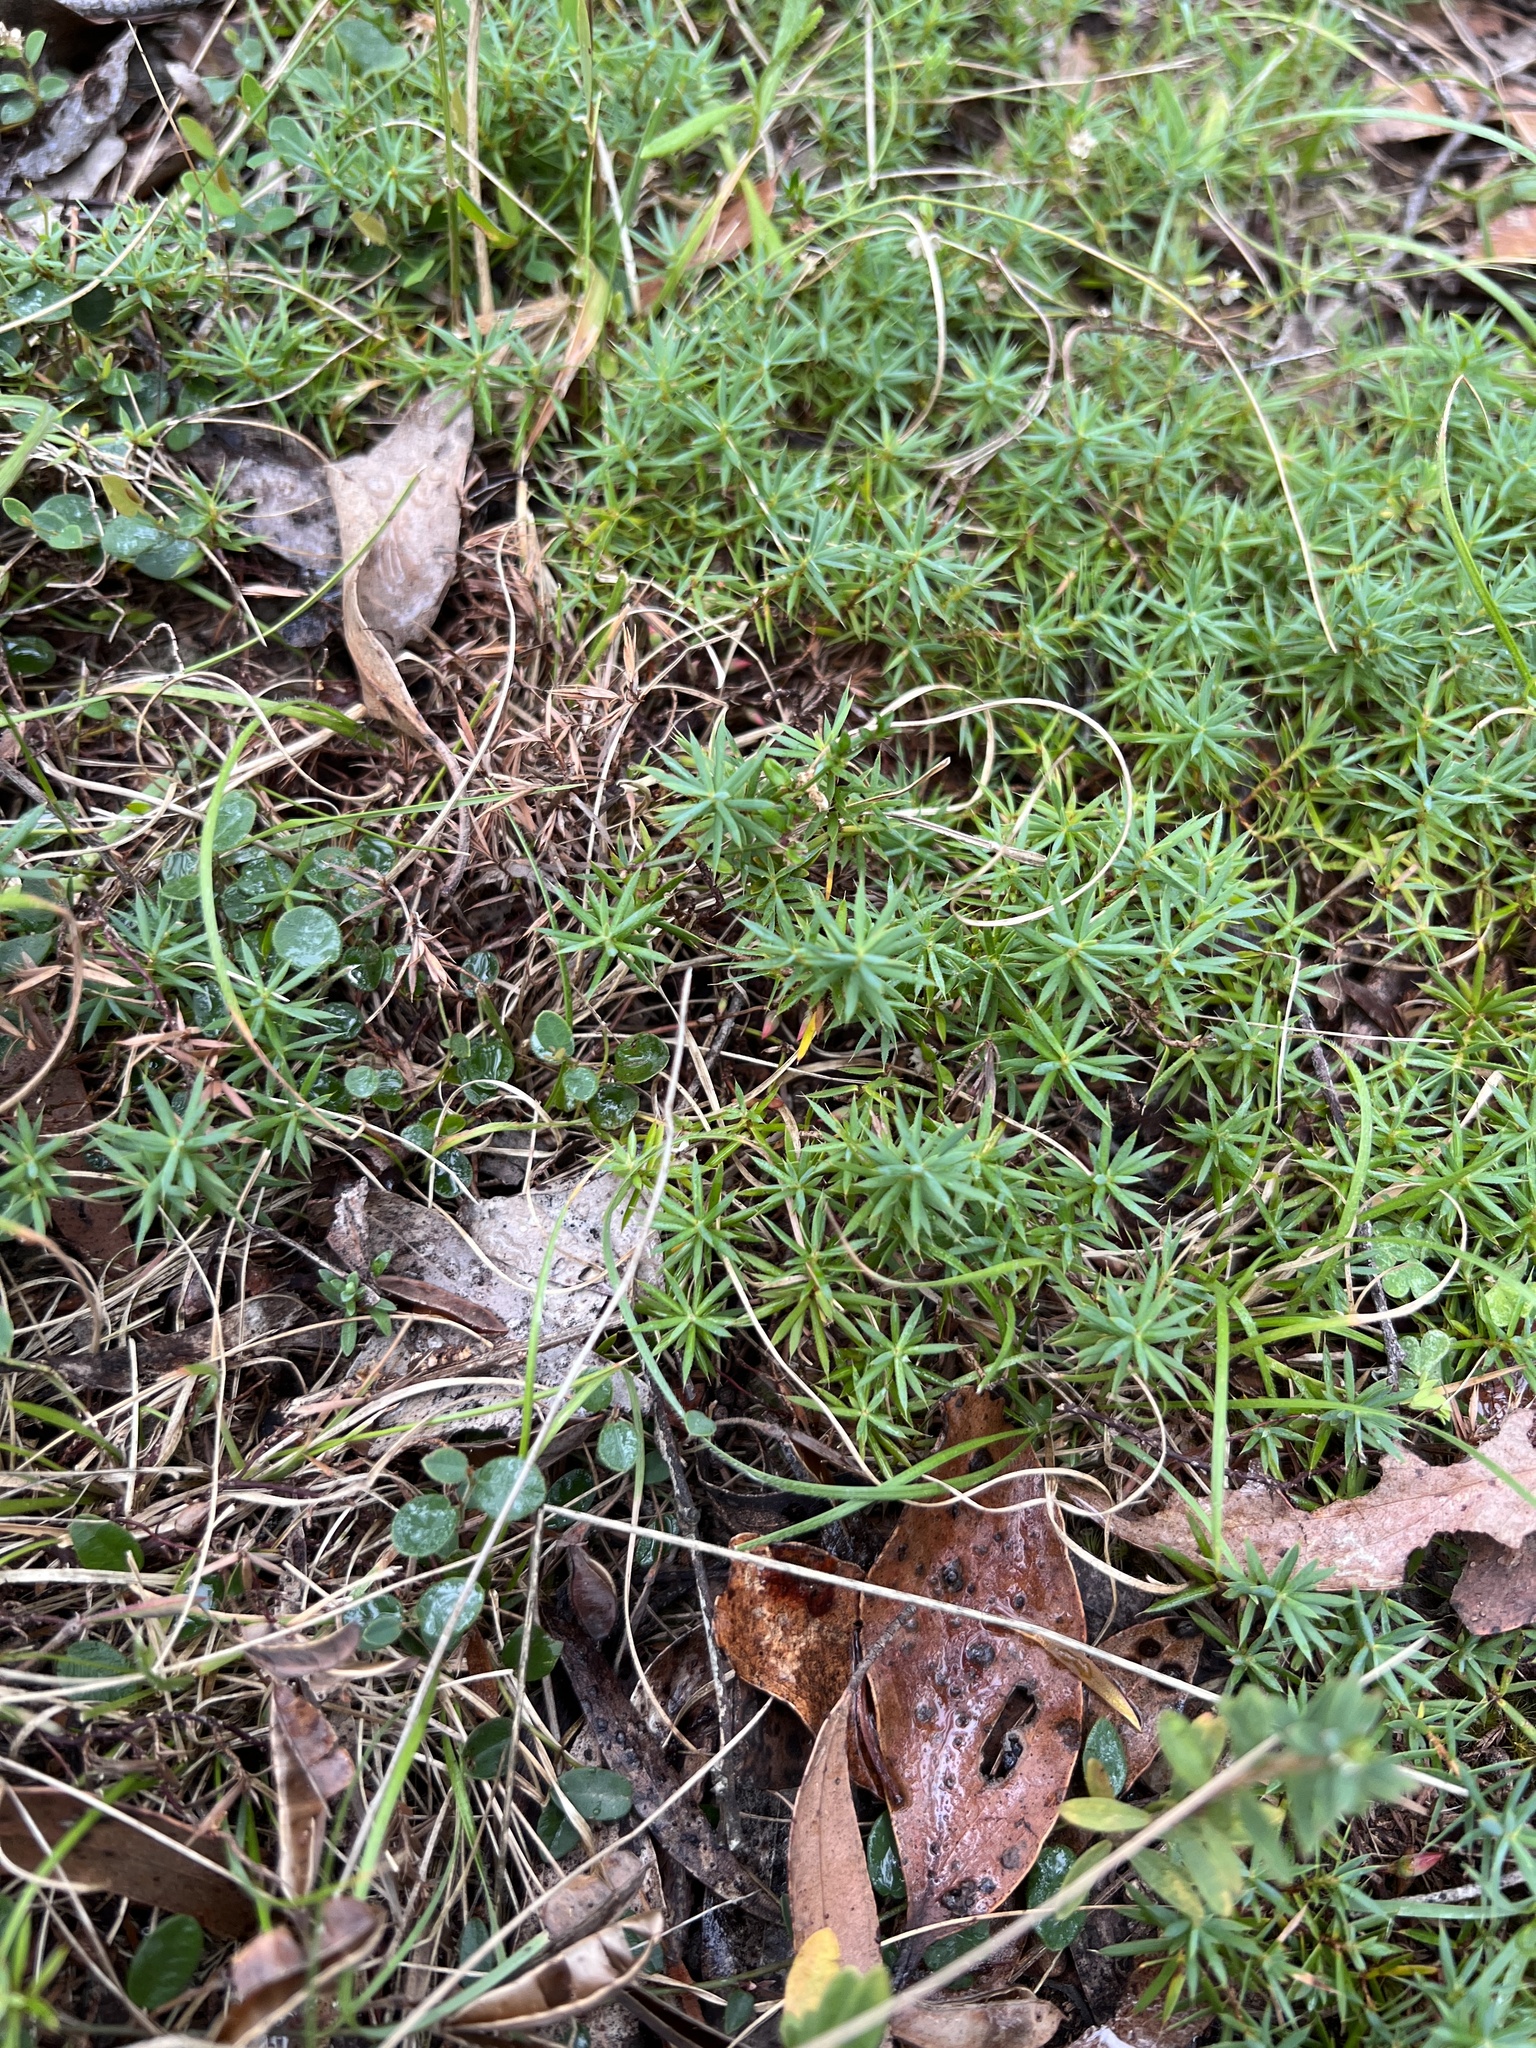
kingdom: Plantae
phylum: Tracheophyta
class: Magnoliopsida
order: Ericales
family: Ericaceae
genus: Styphelia
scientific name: Styphelia humifusa
